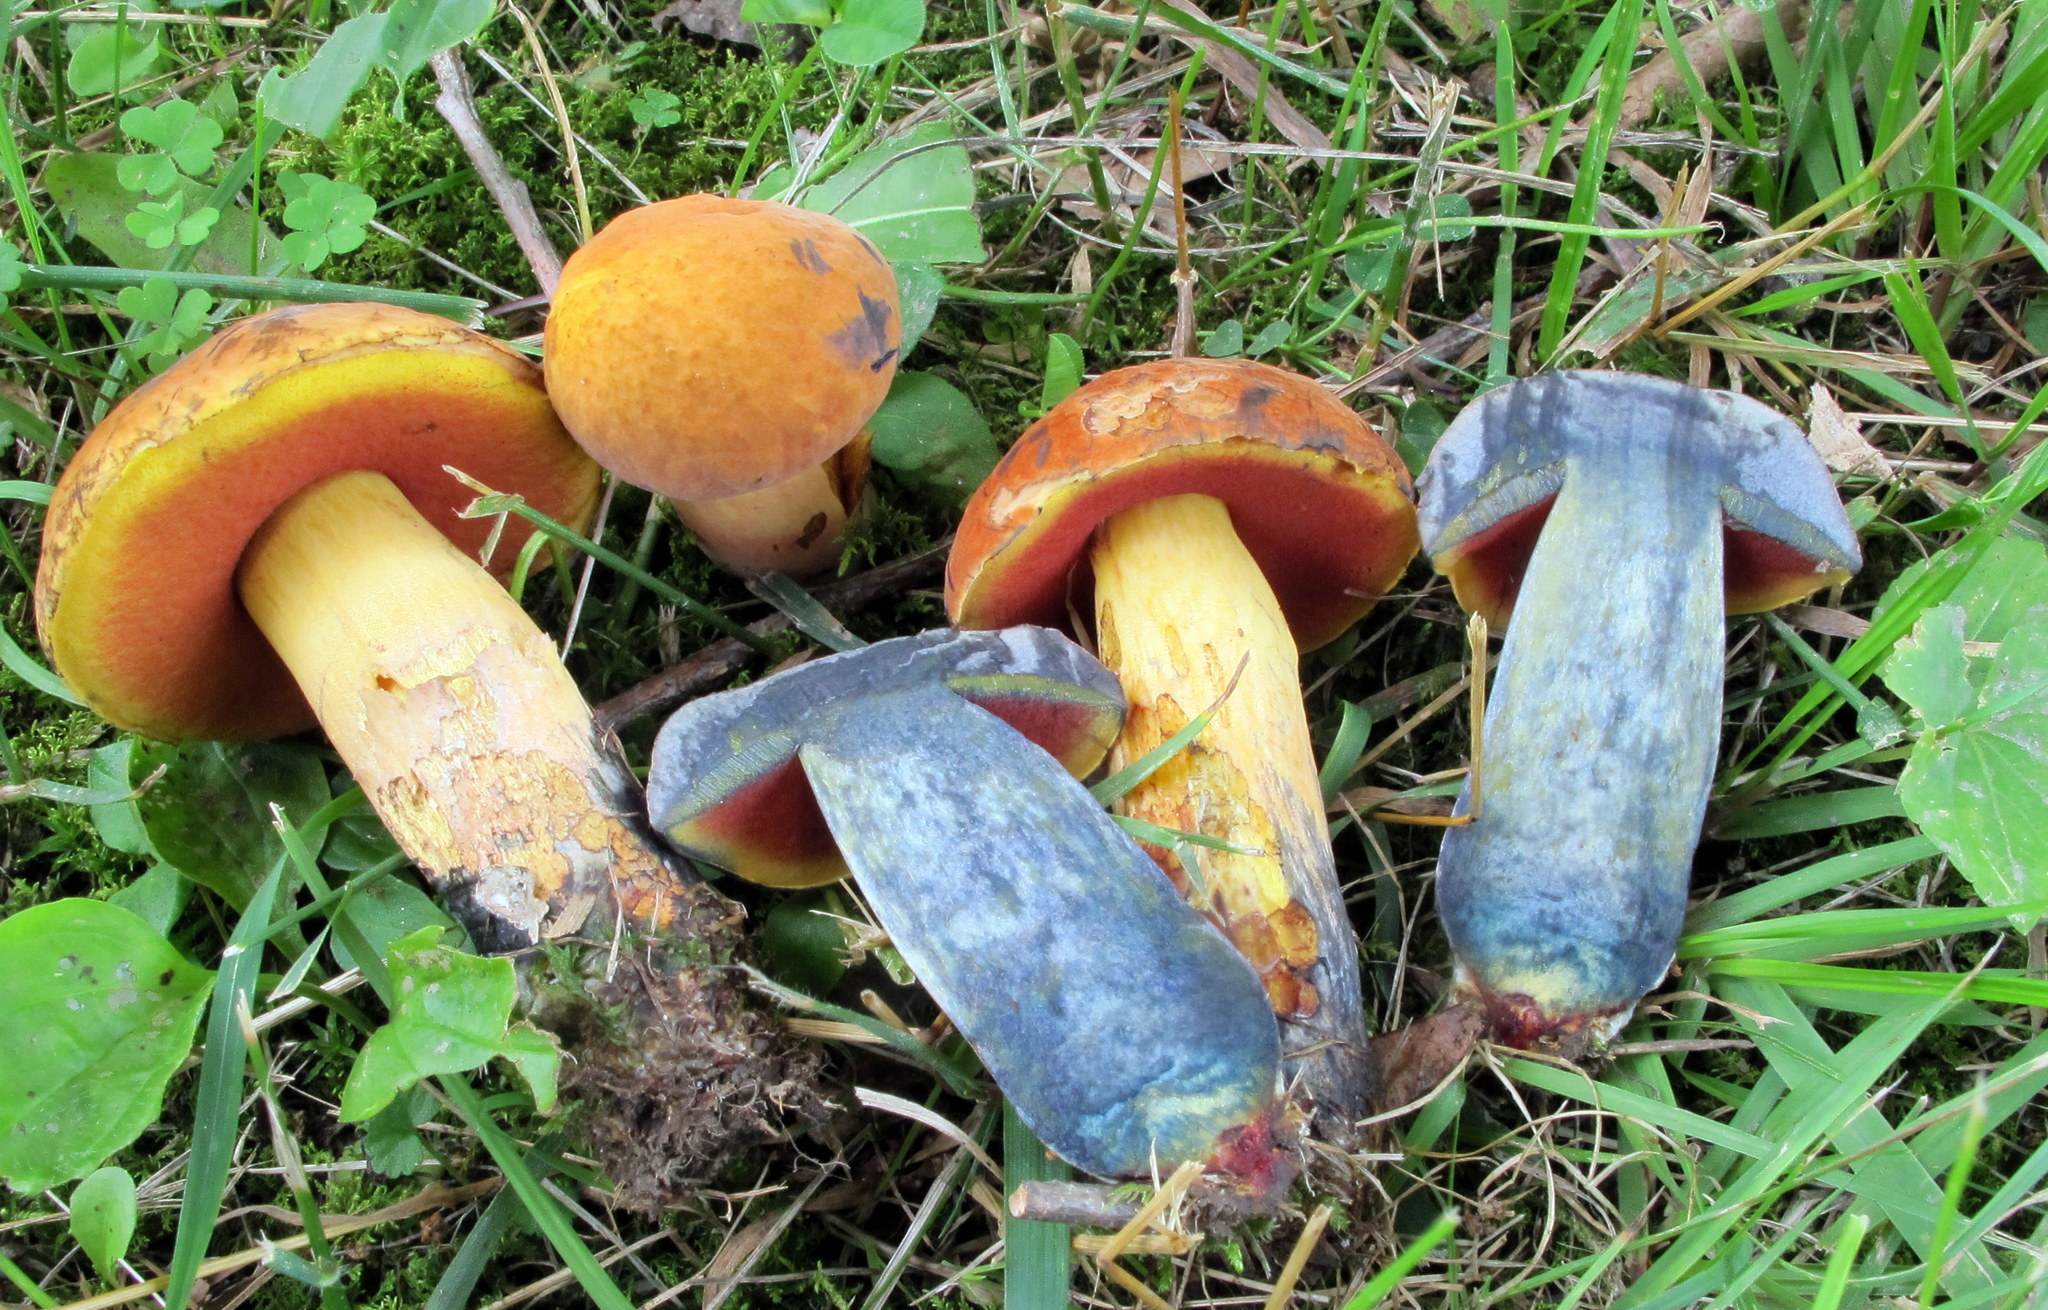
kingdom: Fungi
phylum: Basidiomycota
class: Agaricomycetes
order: Boletales
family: Boletaceae
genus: Boletus
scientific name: Boletus subvelutipes
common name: Red-mouth bolete
